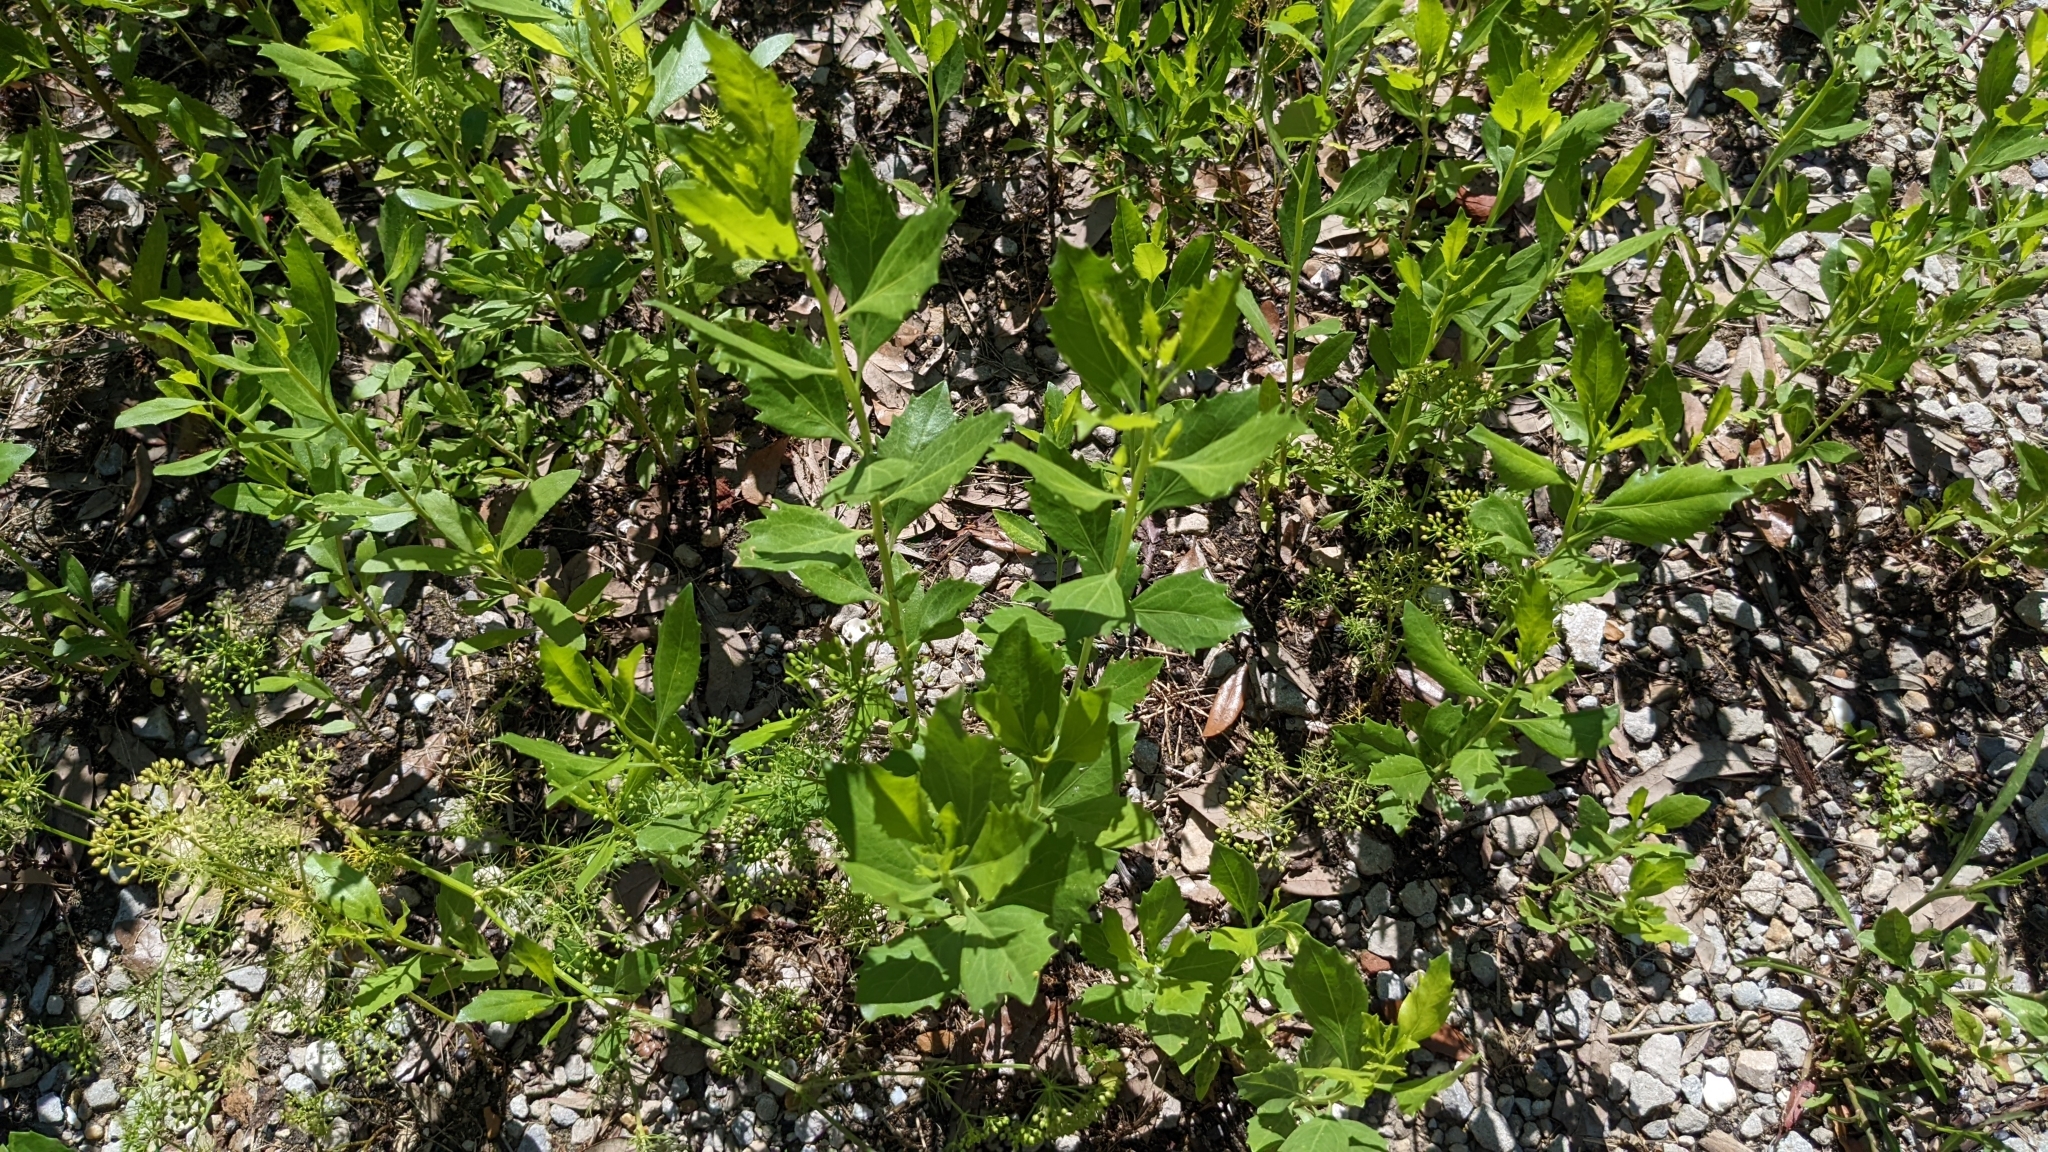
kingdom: Plantae
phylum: Tracheophyta
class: Magnoliopsida
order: Asterales
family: Asteraceae
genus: Baccharis
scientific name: Baccharis halimifolia
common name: Eastern baccharis
